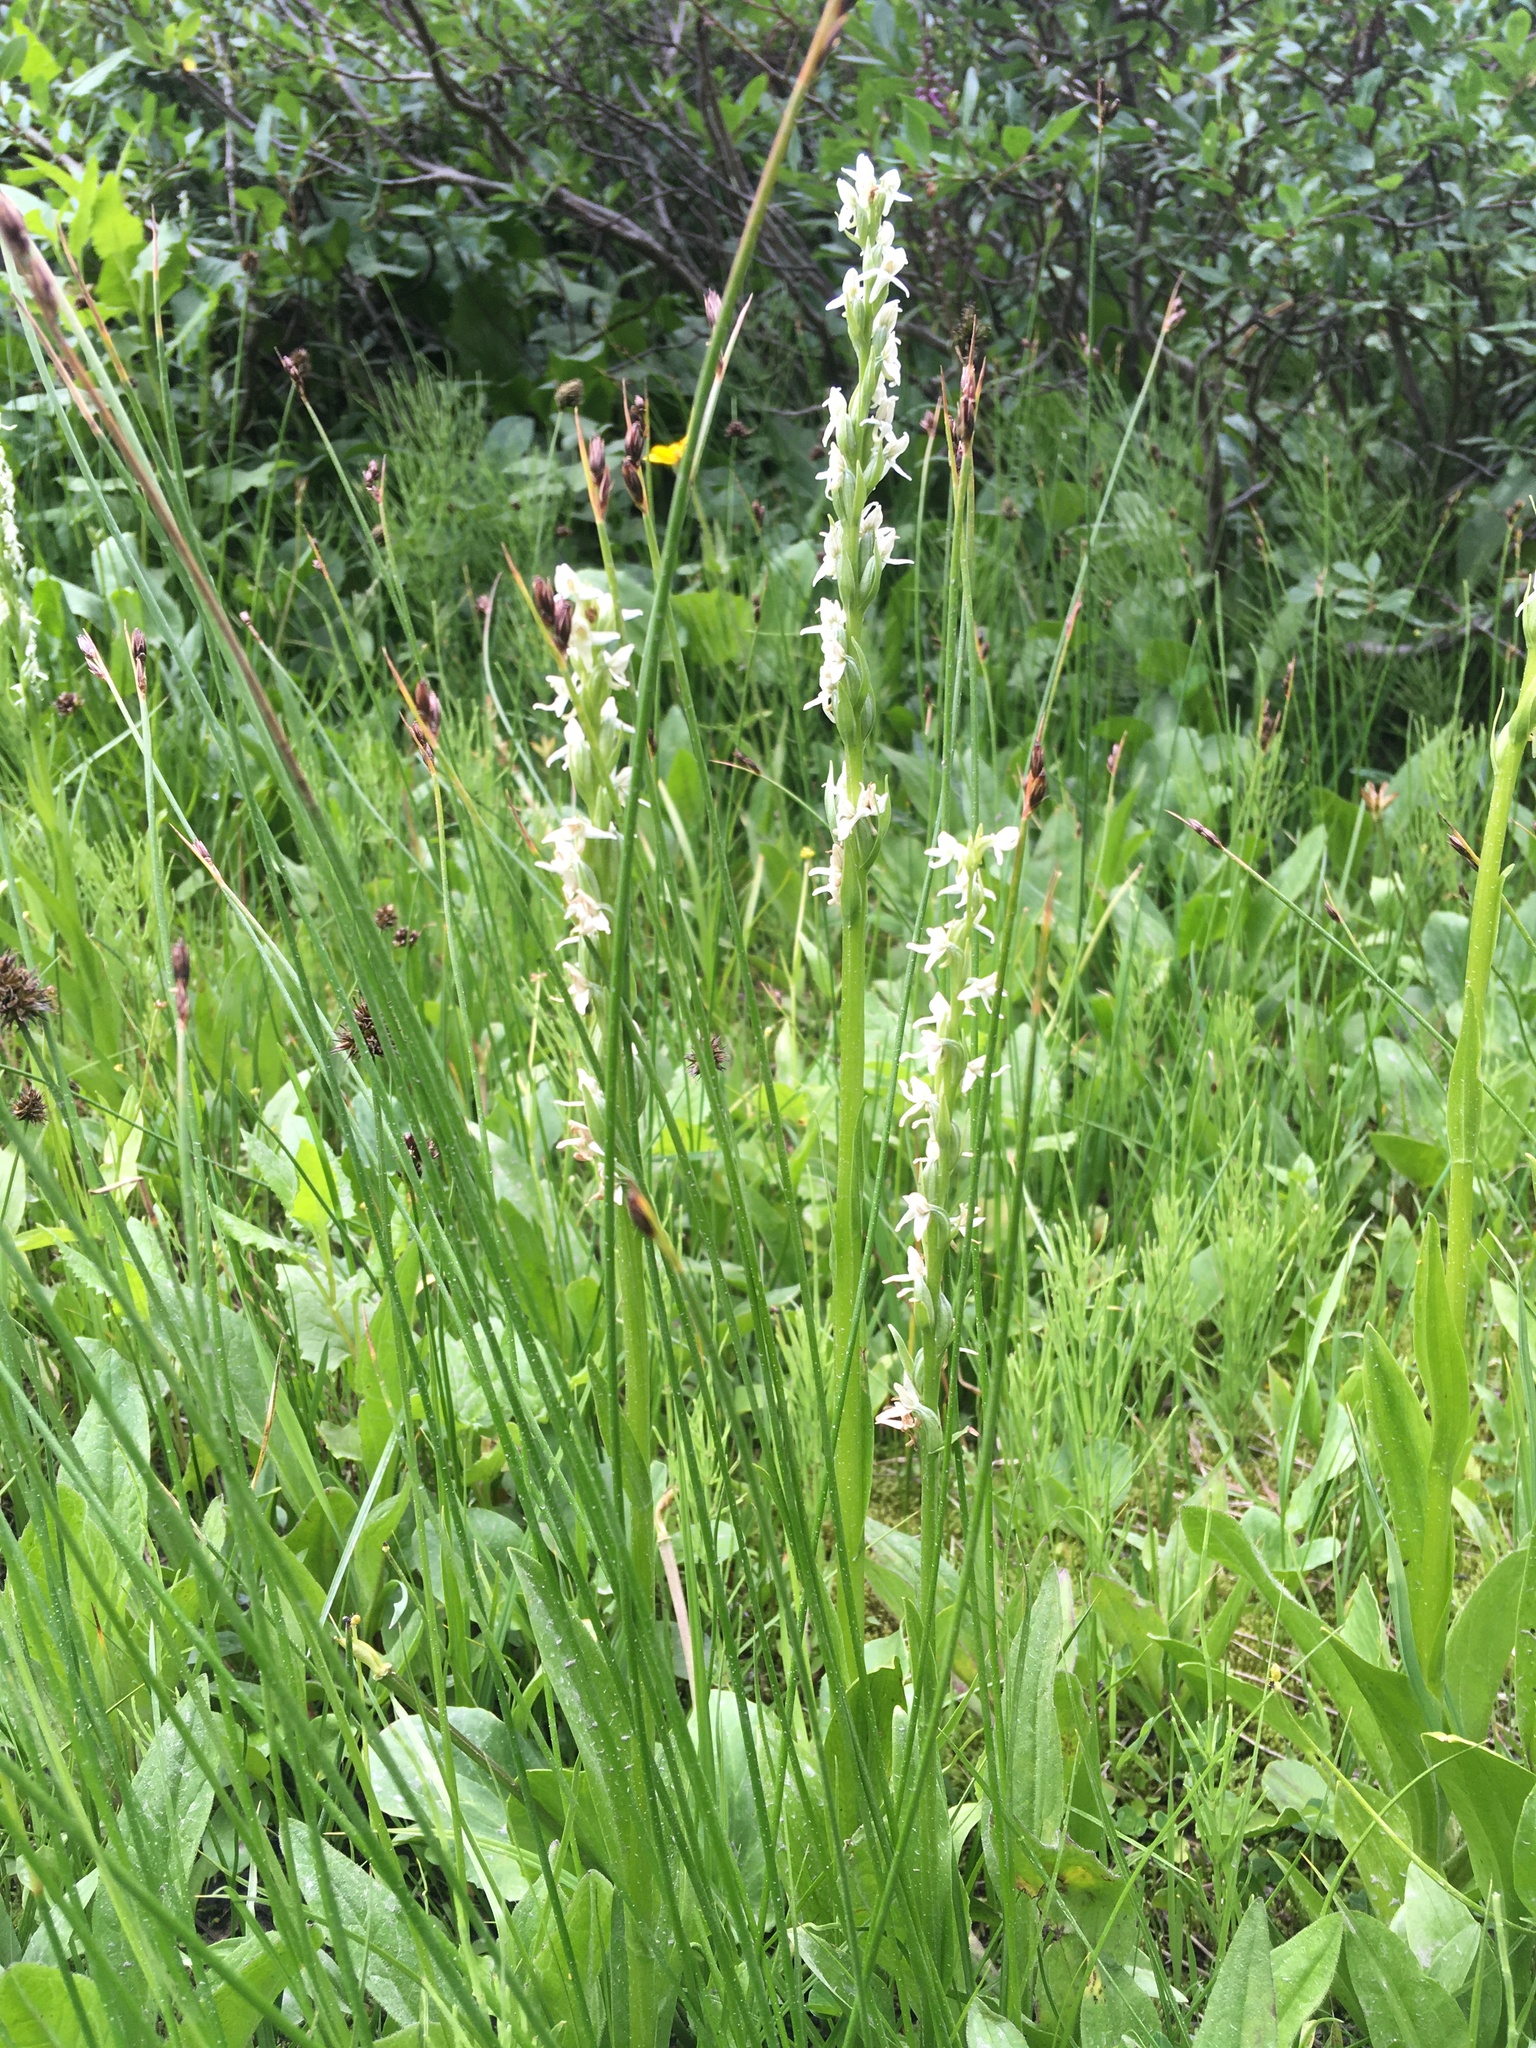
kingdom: Plantae
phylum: Tracheophyta
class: Liliopsida
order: Asparagales
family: Orchidaceae
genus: Platanthera
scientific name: Platanthera dilatata
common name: Bog candles
